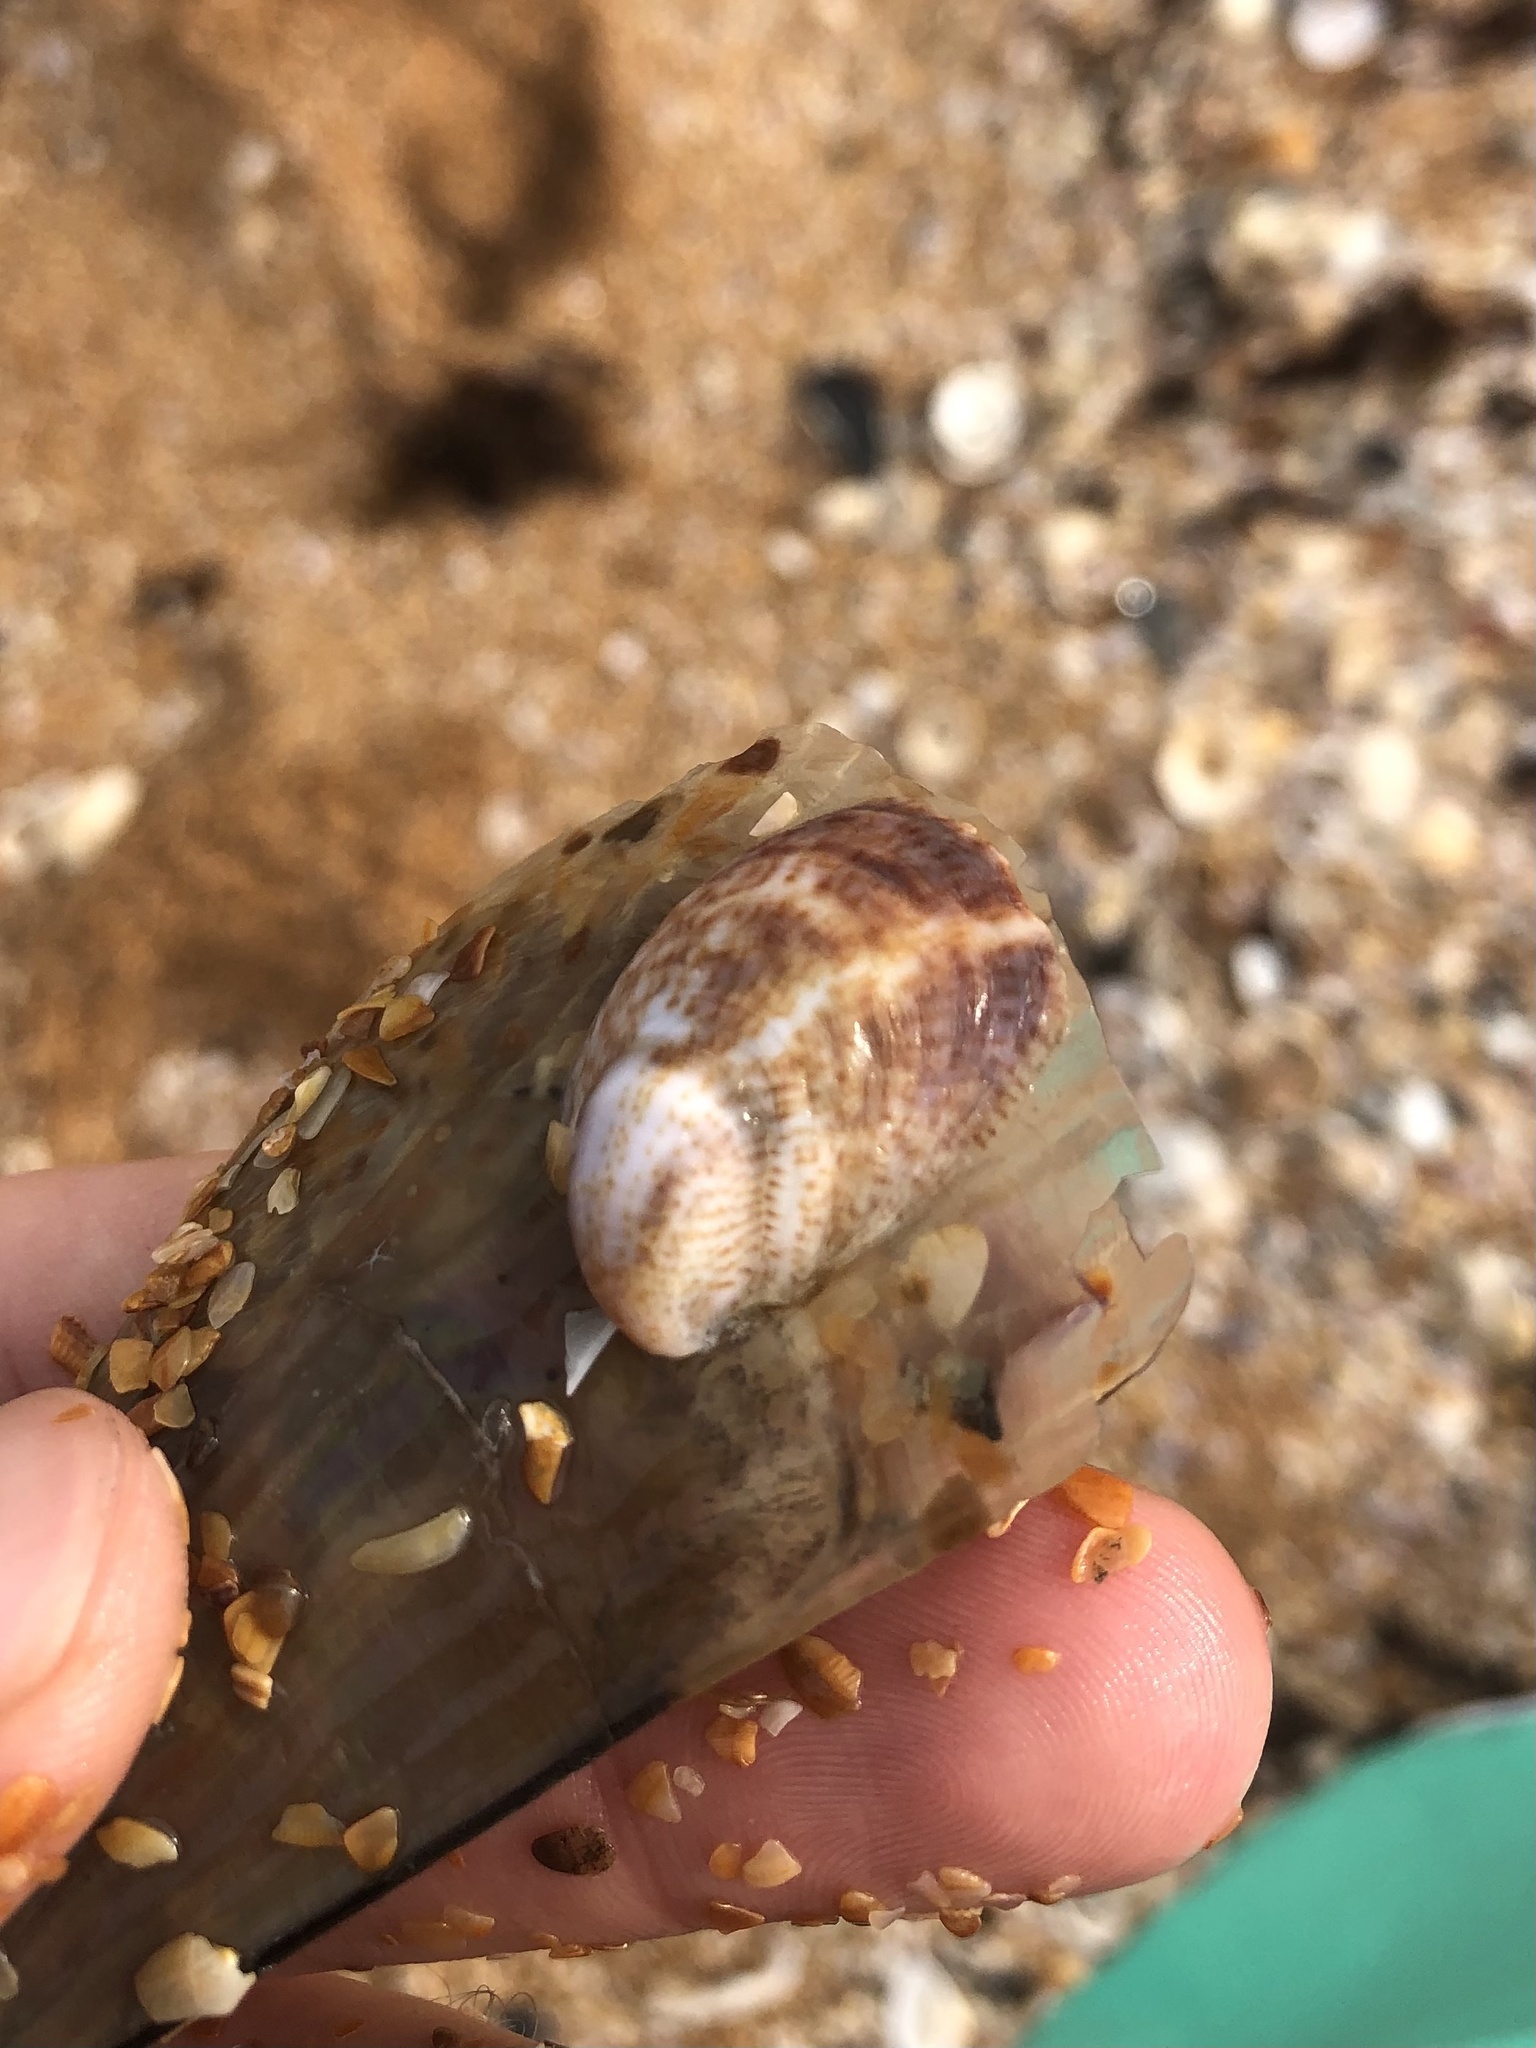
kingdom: Animalia
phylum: Mollusca
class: Gastropoda
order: Littorinimorpha
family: Calyptraeidae
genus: Crepidula
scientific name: Crepidula fornicata
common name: Slipper limpet
